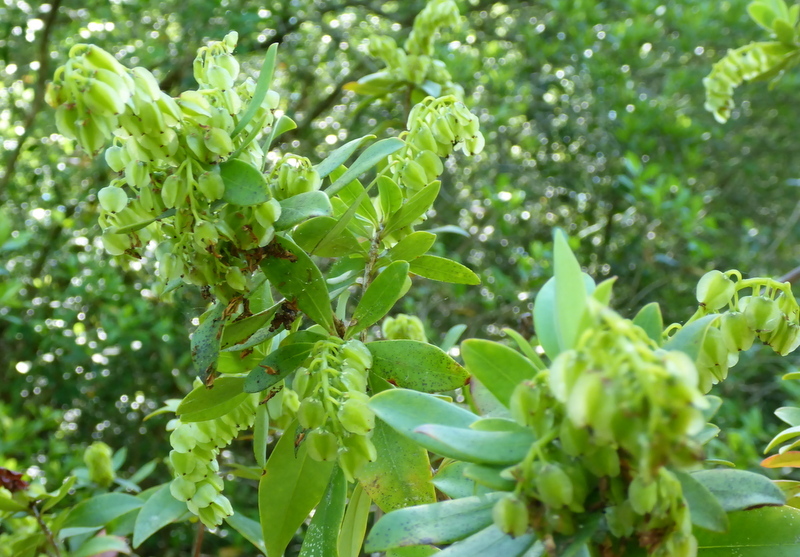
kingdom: Plantae
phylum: Tracheophyta
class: Magnoliopsida
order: Ericales
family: Cyrillaceae
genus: Cliftonia
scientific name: Cliftonia monophylla
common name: Titi
